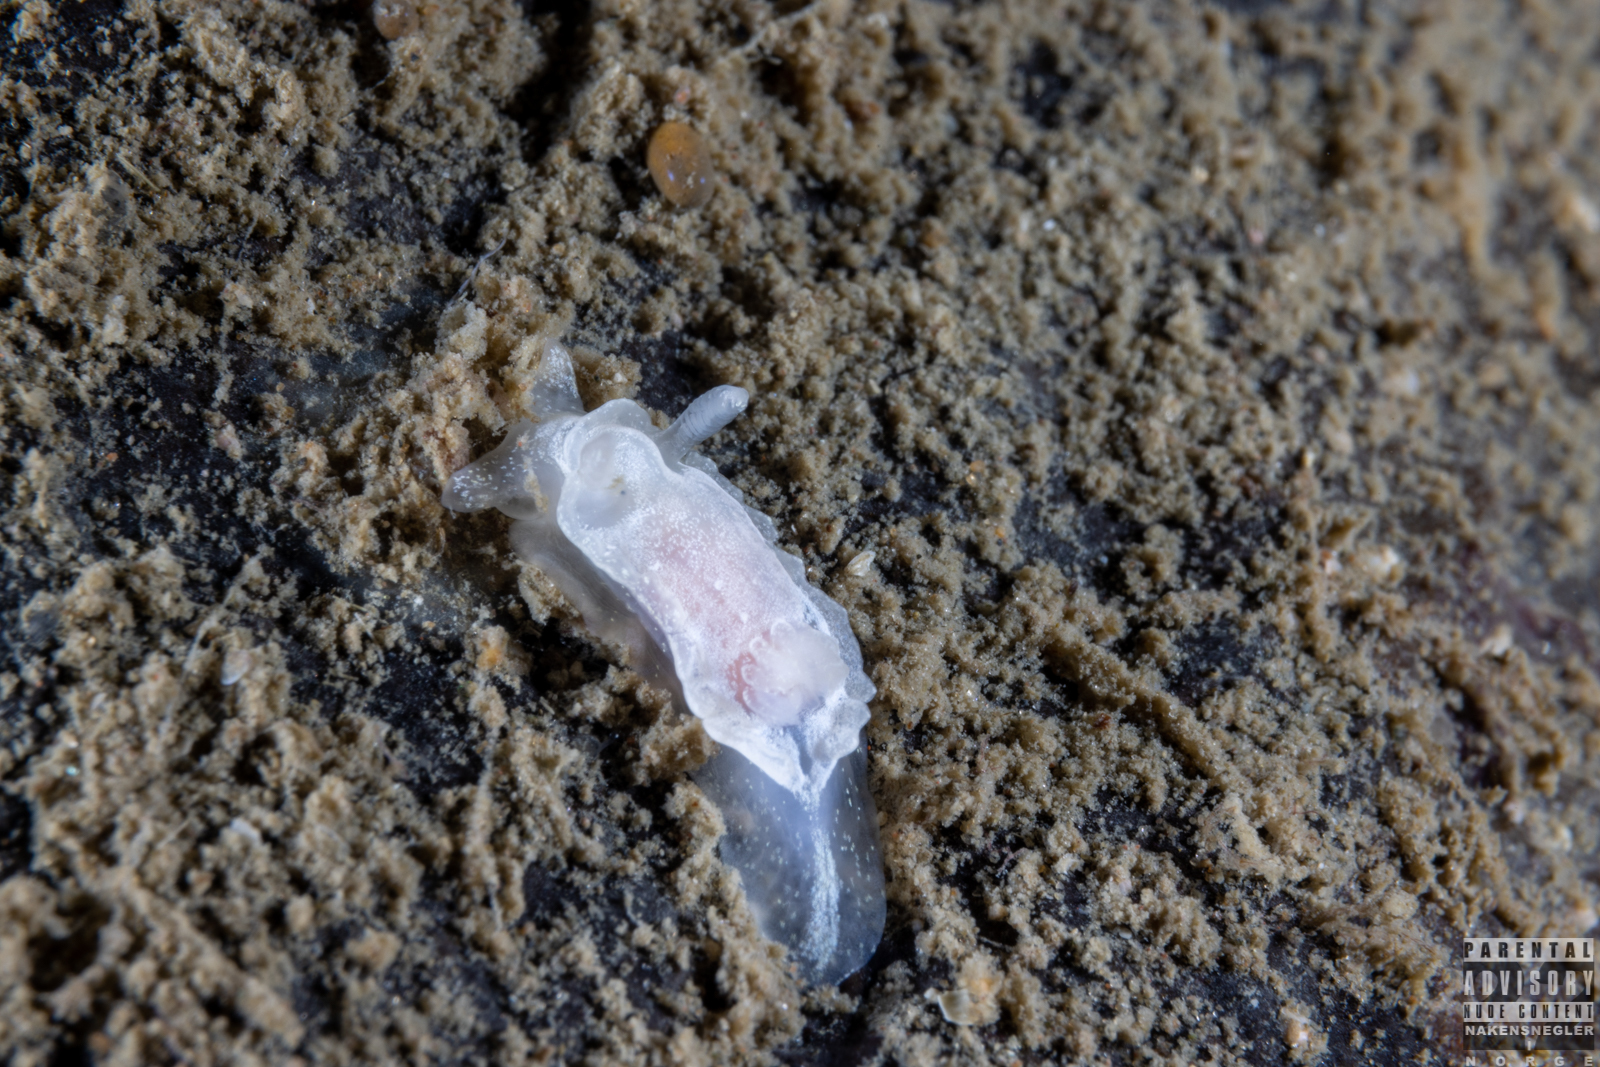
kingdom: Animalia
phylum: Mollusca
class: Gastropoda
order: Nudibranchia
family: Goniodorididae
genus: Okenia
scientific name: Okenia
